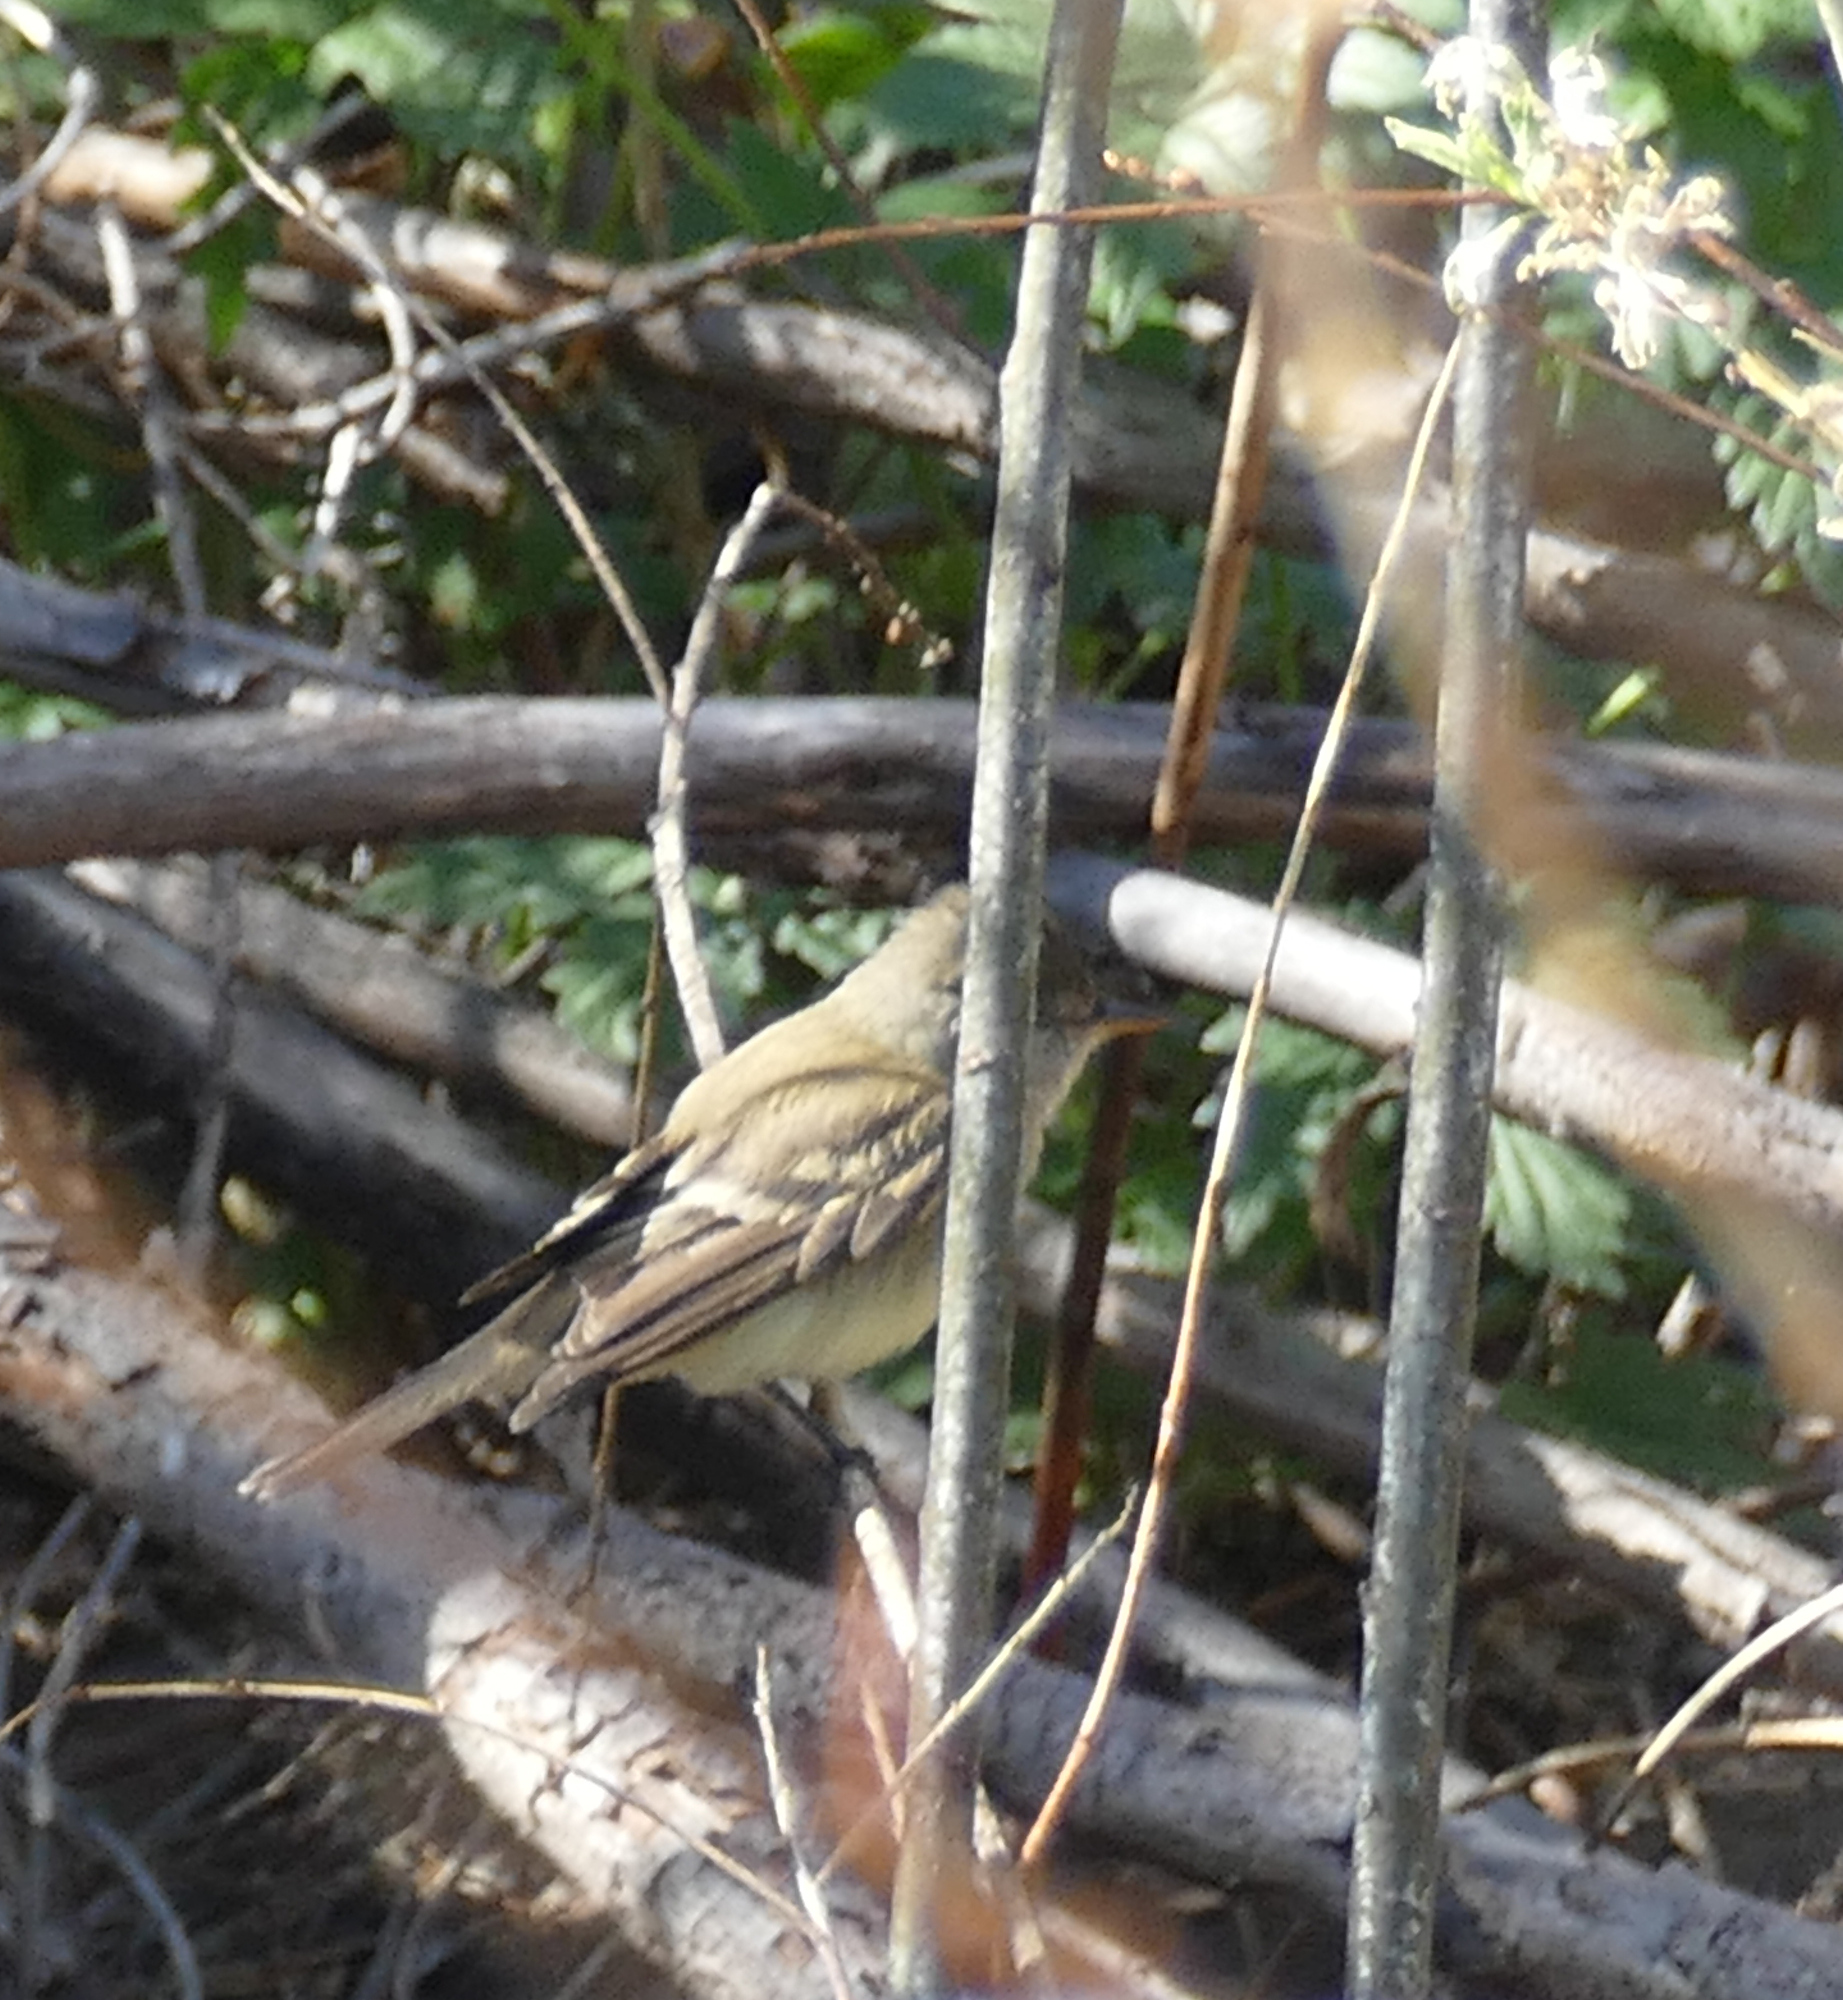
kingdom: Animalia
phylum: Chordata
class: Aves
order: Passeriformes
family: Tyrannidae
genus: Empidonax
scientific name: Empidonax traillii
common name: Willow flycatcher
